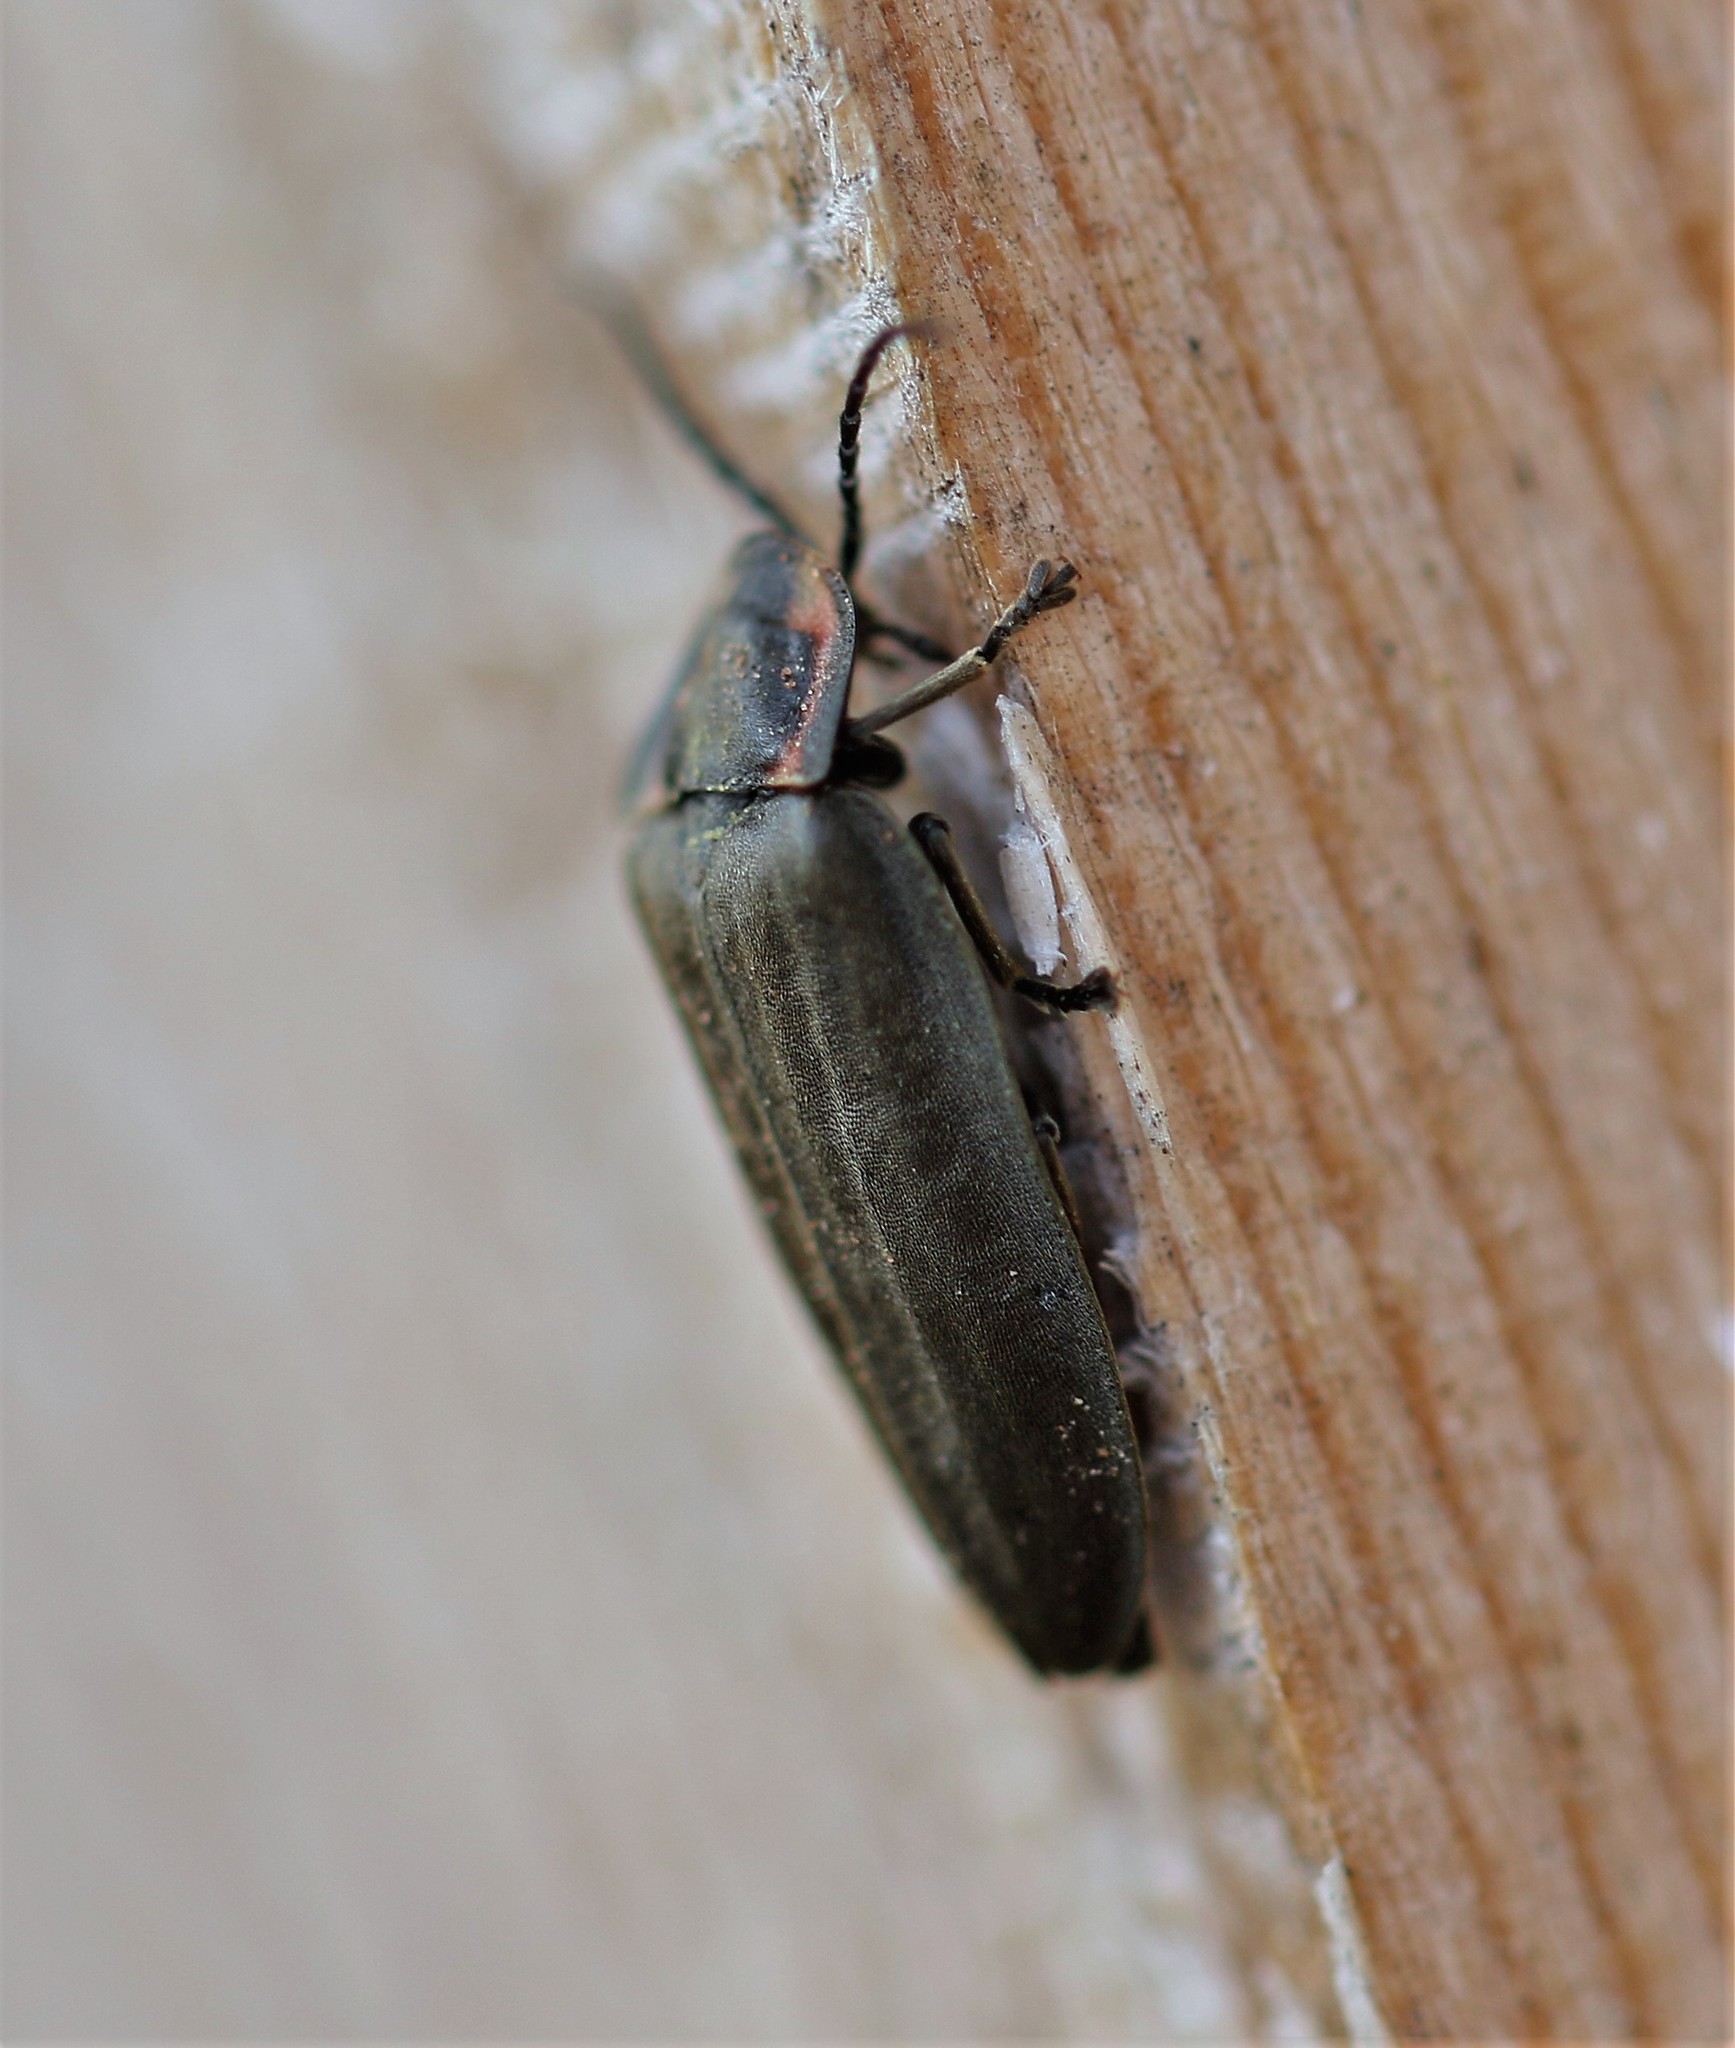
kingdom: Animalia
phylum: Arthropoda
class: Insecta
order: Coleoptera
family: Lampyridae
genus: Photinus
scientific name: Photinus corrusca
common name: Winter firefly
